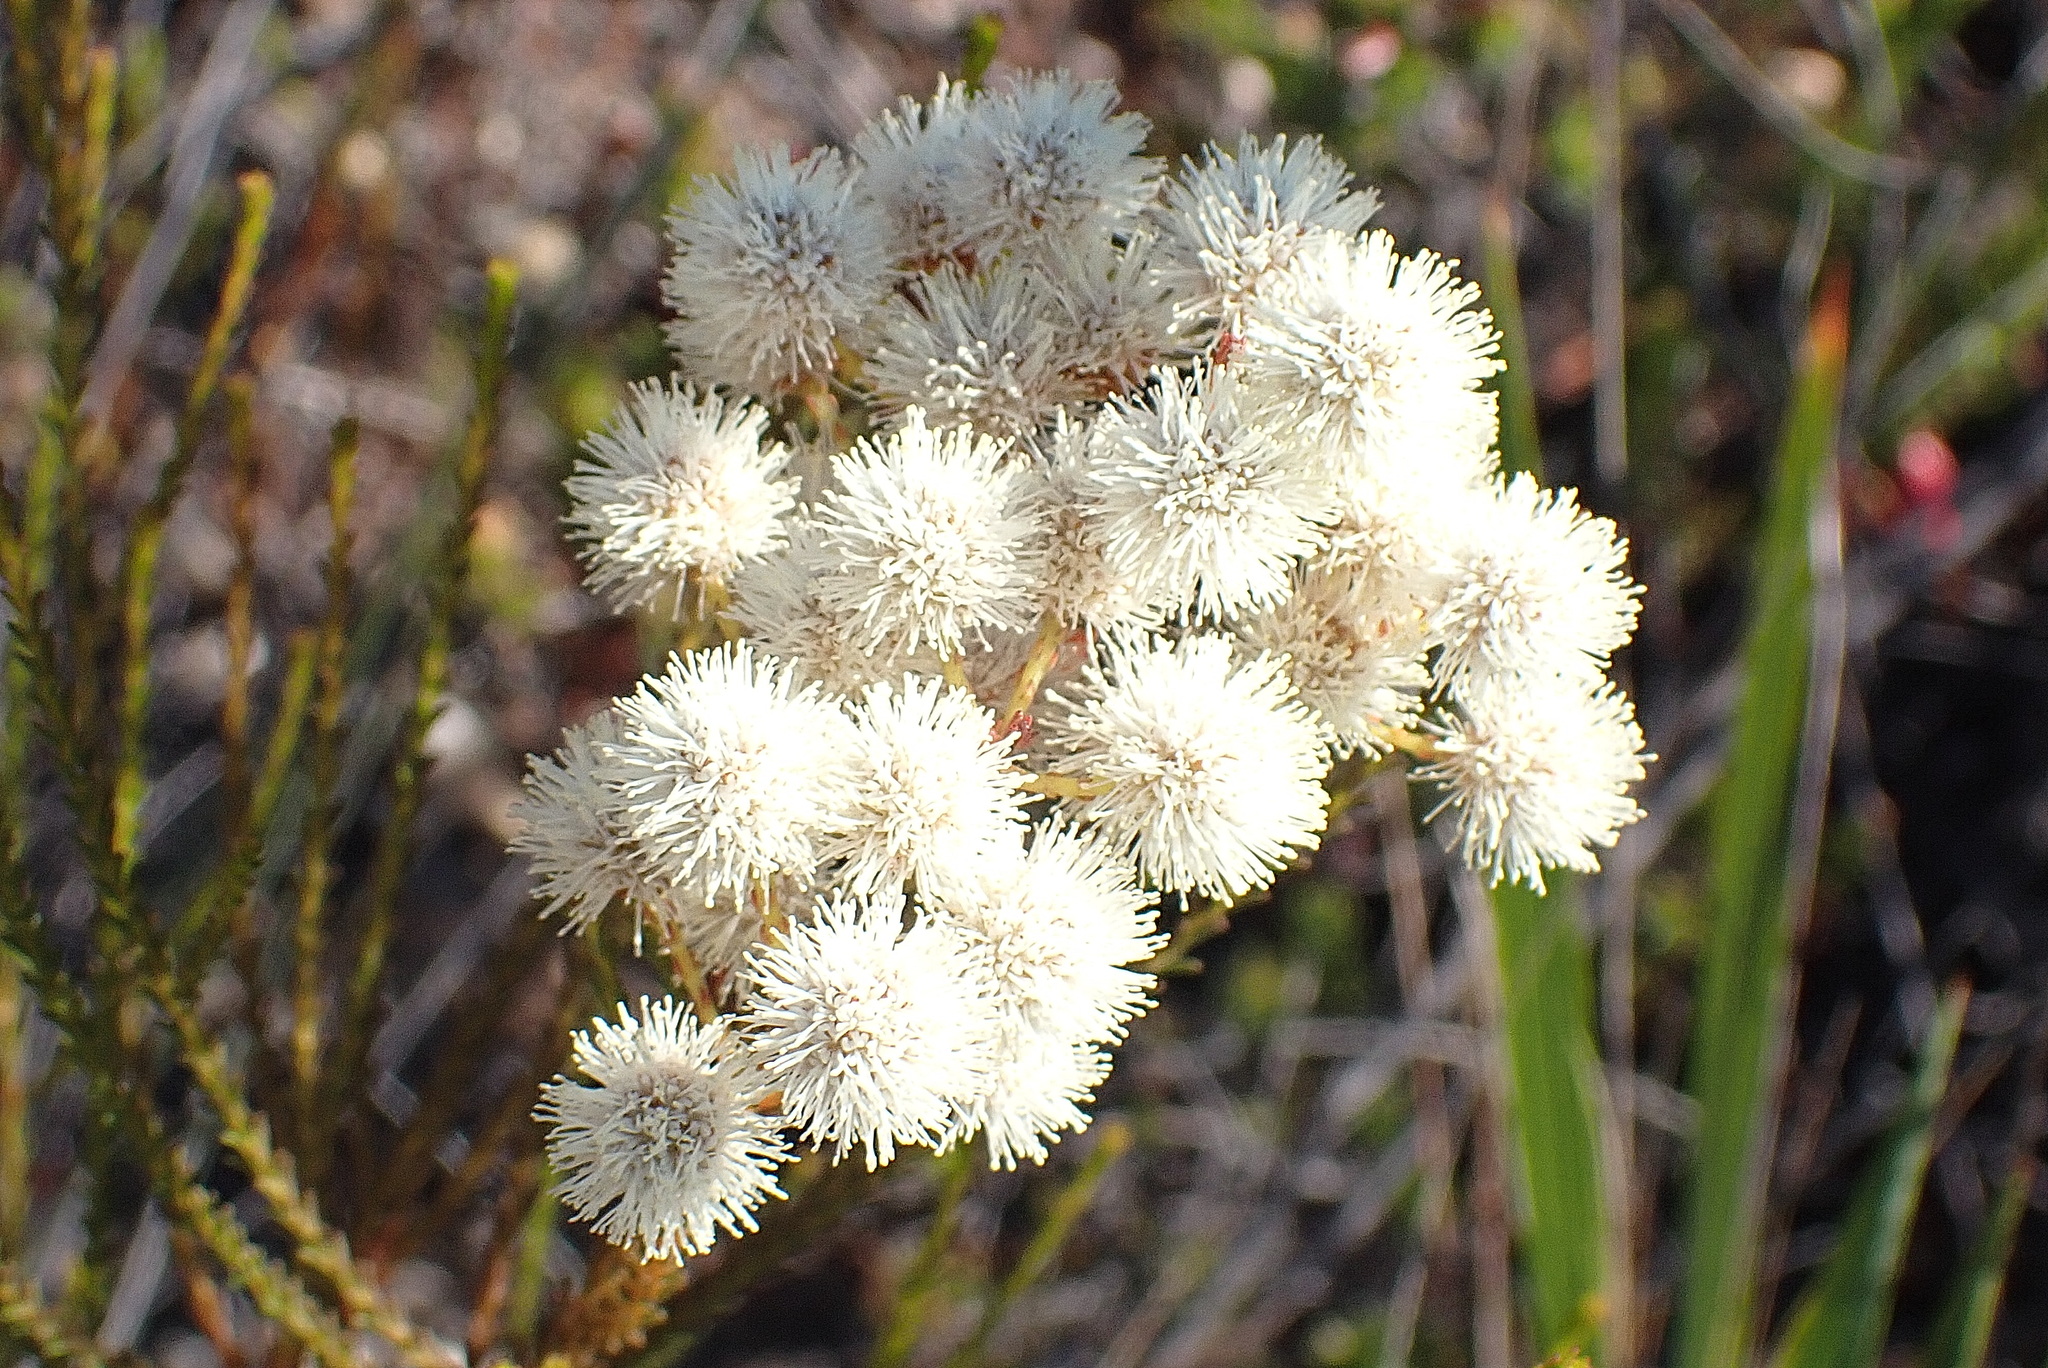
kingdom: Plantae
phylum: Tracheophyta
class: Magnoliopsida
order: Bruniales
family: Bruniaceae
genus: Berzelia
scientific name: Berzelia lanuginosa
